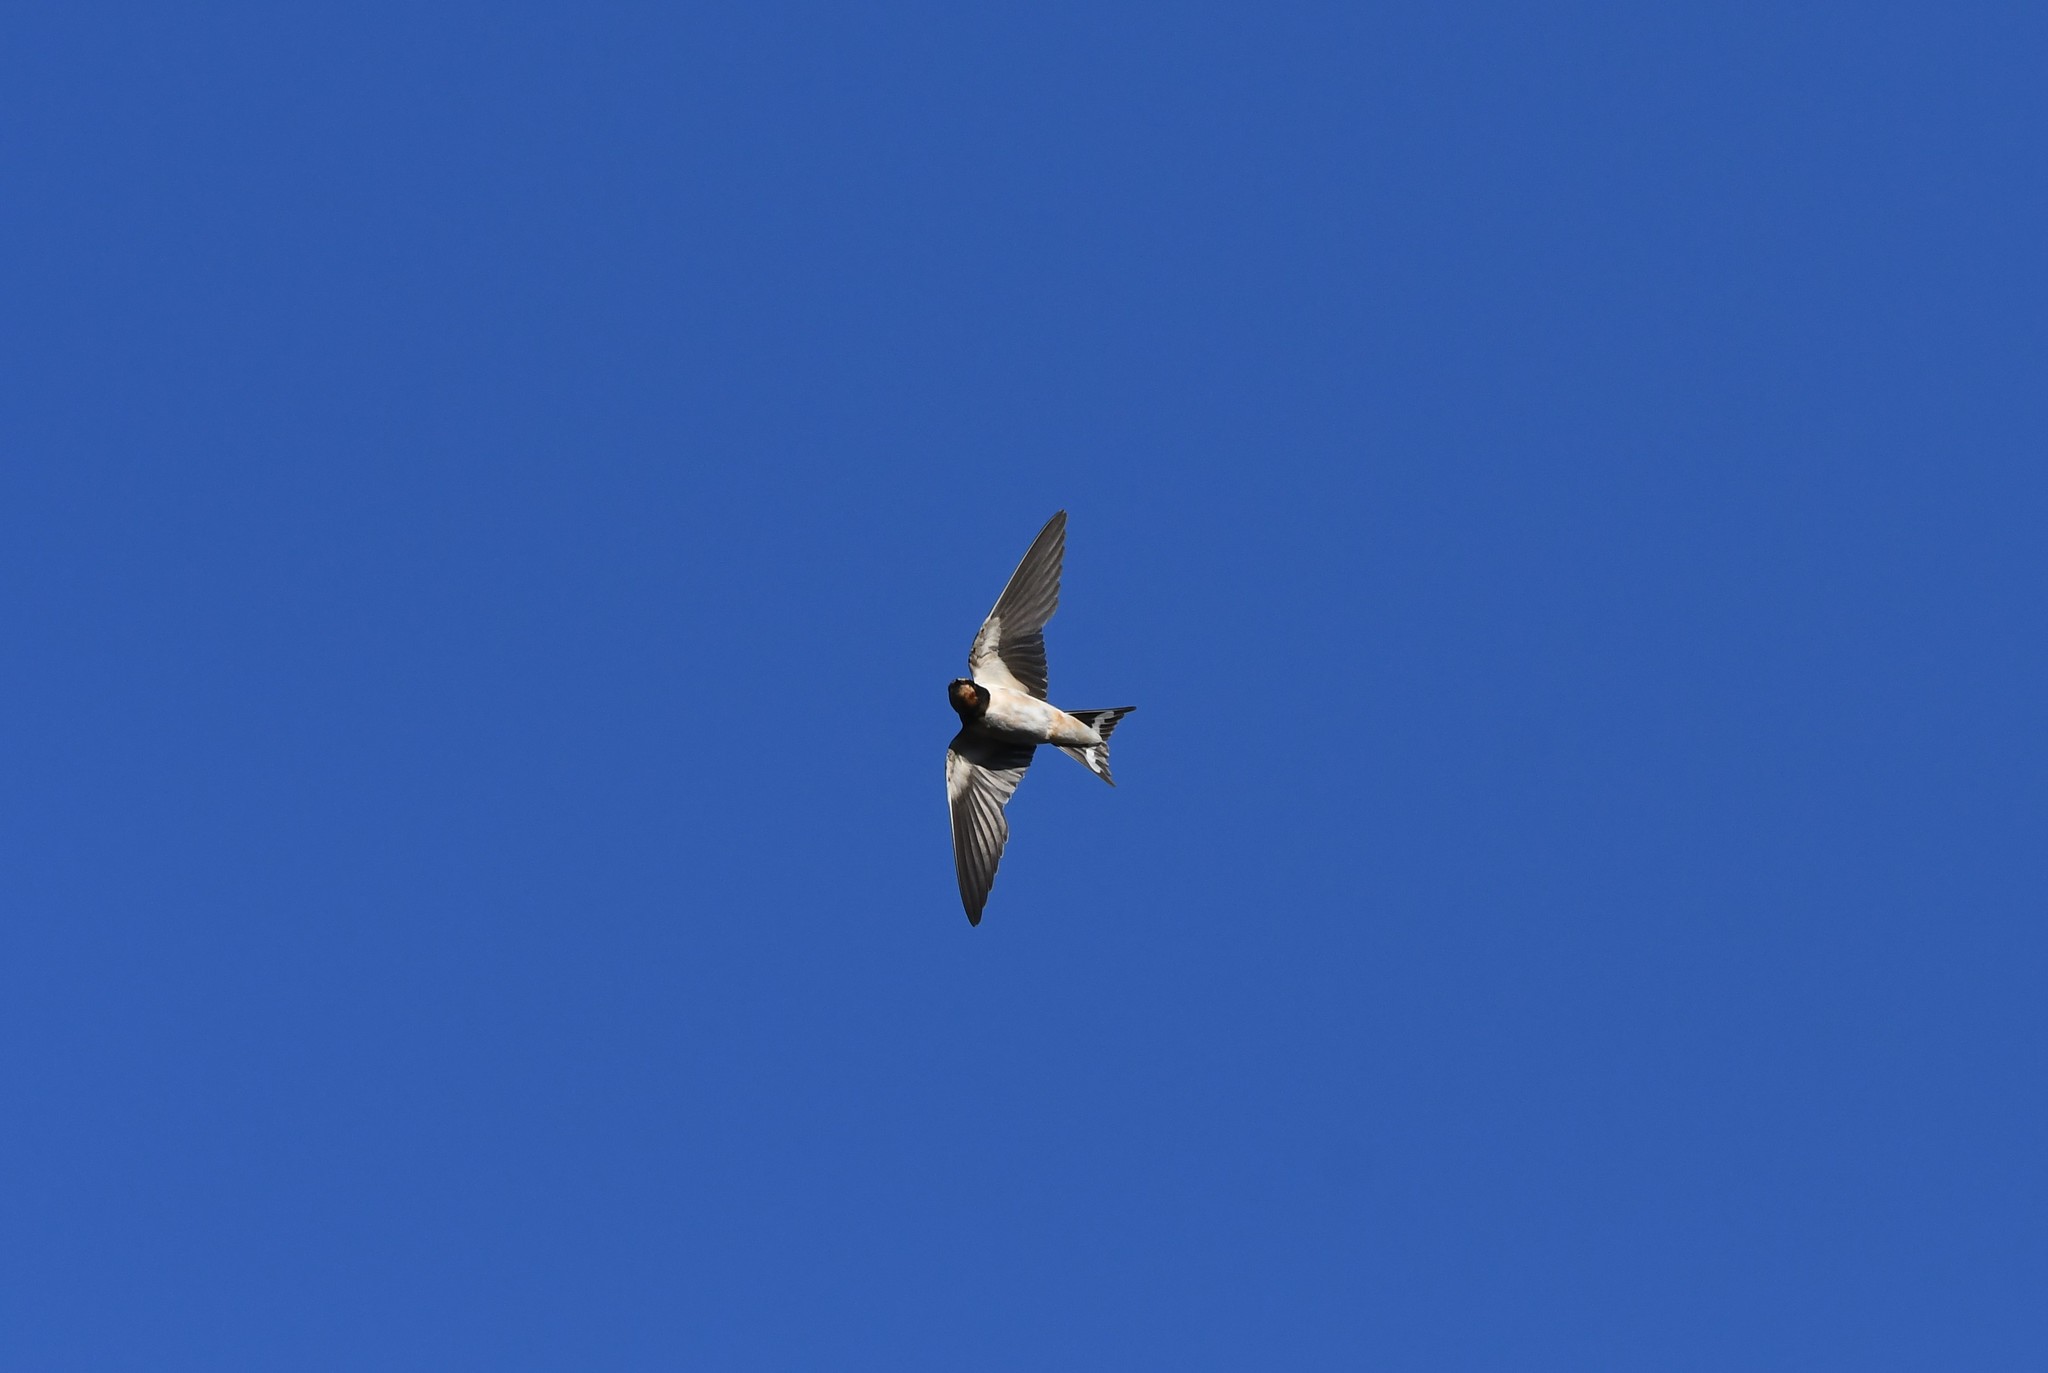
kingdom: Animalia
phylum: Chordata
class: Aves
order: Passeriformes
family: Hirundinidae
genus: Hirundo
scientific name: Hirundo rustica
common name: Barn swallow
